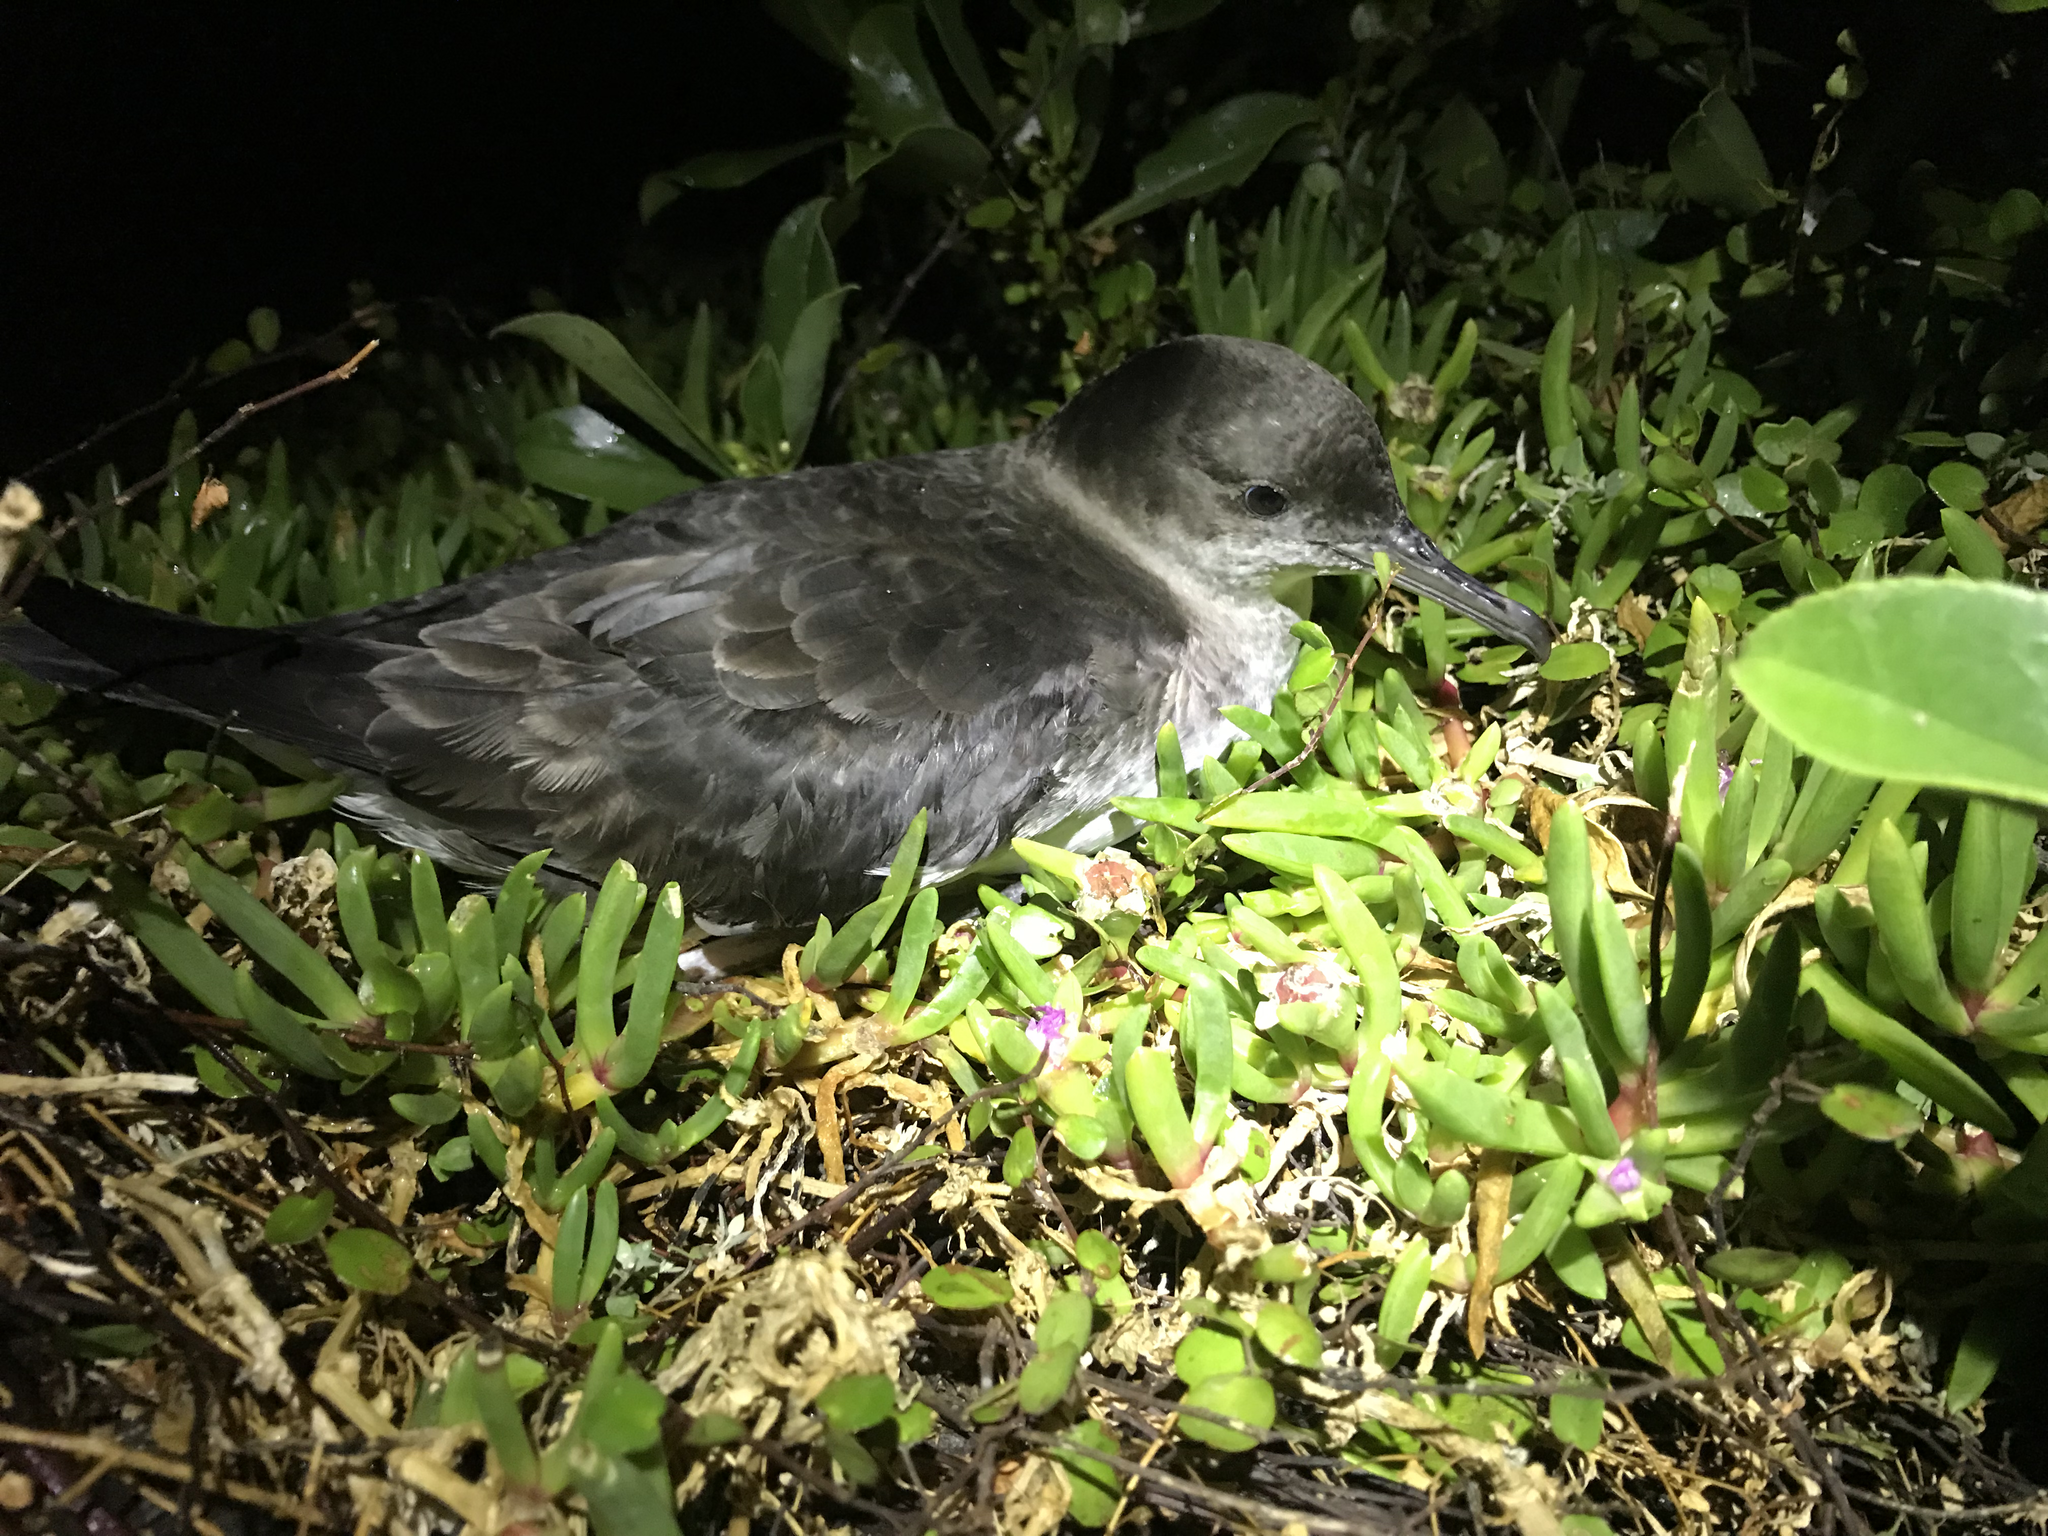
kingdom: Animalia
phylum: Chordata
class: Aves
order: Procellariiformes
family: Procellariidae
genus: Puffinus
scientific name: Puffinus gavia
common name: Fluttering shearwater
